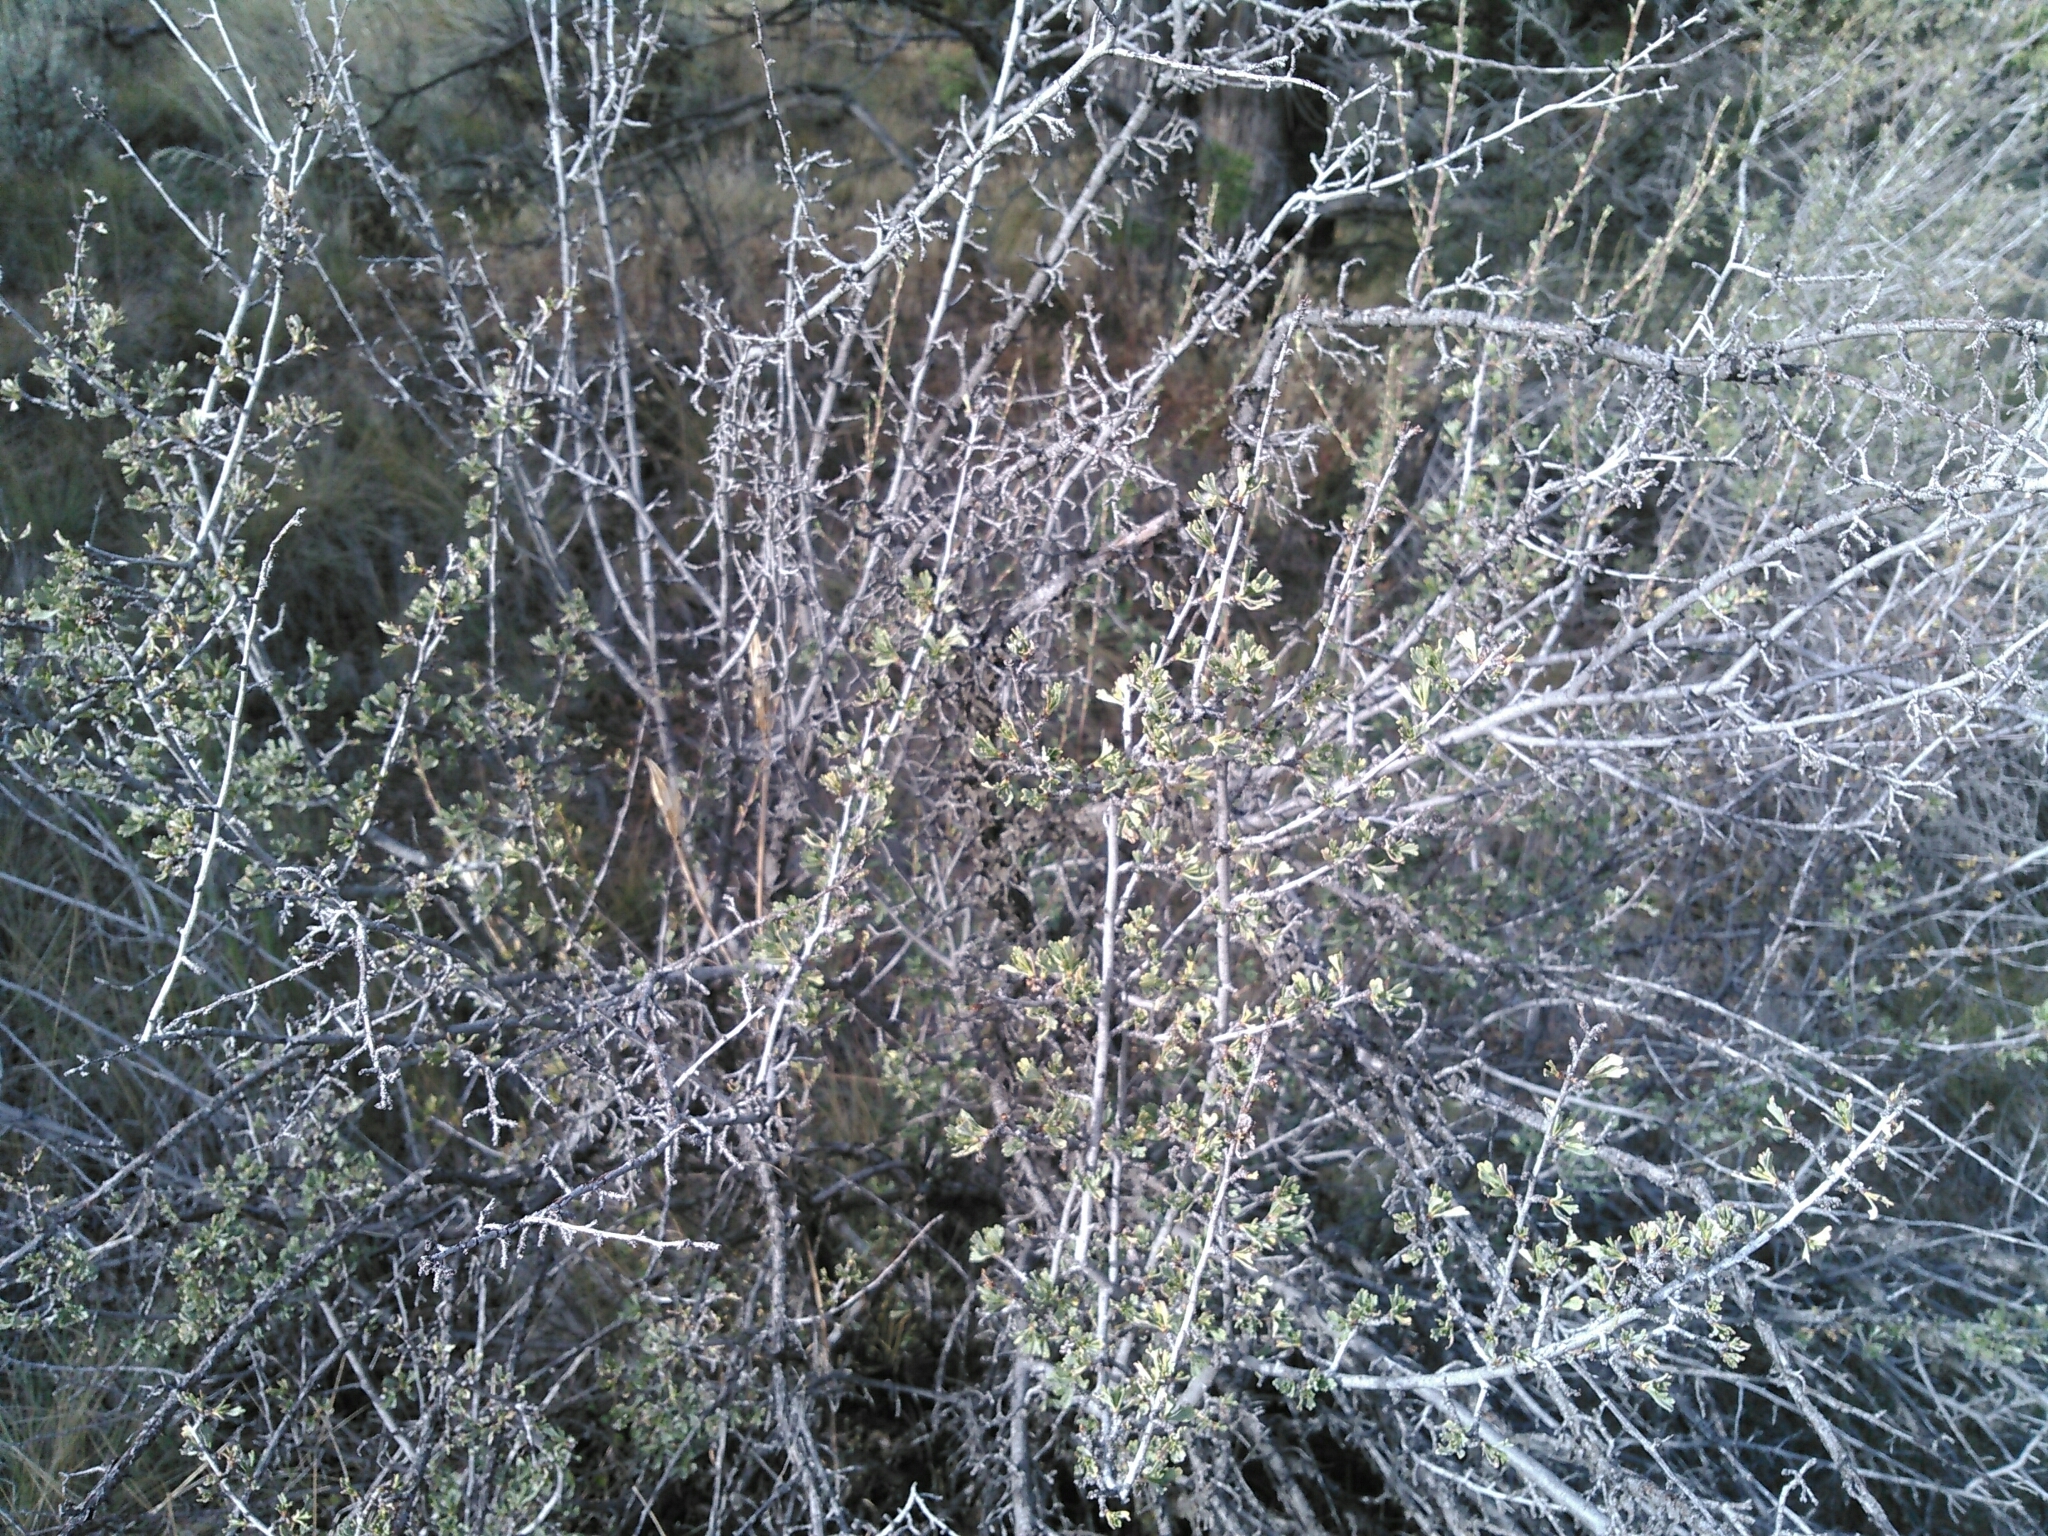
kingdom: Plantae
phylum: Tracheophyta
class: Magnoliopsida
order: Rosales
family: Rosaceae
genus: Purshia
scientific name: Purshia tridentata
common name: Antelope bitterbrush
